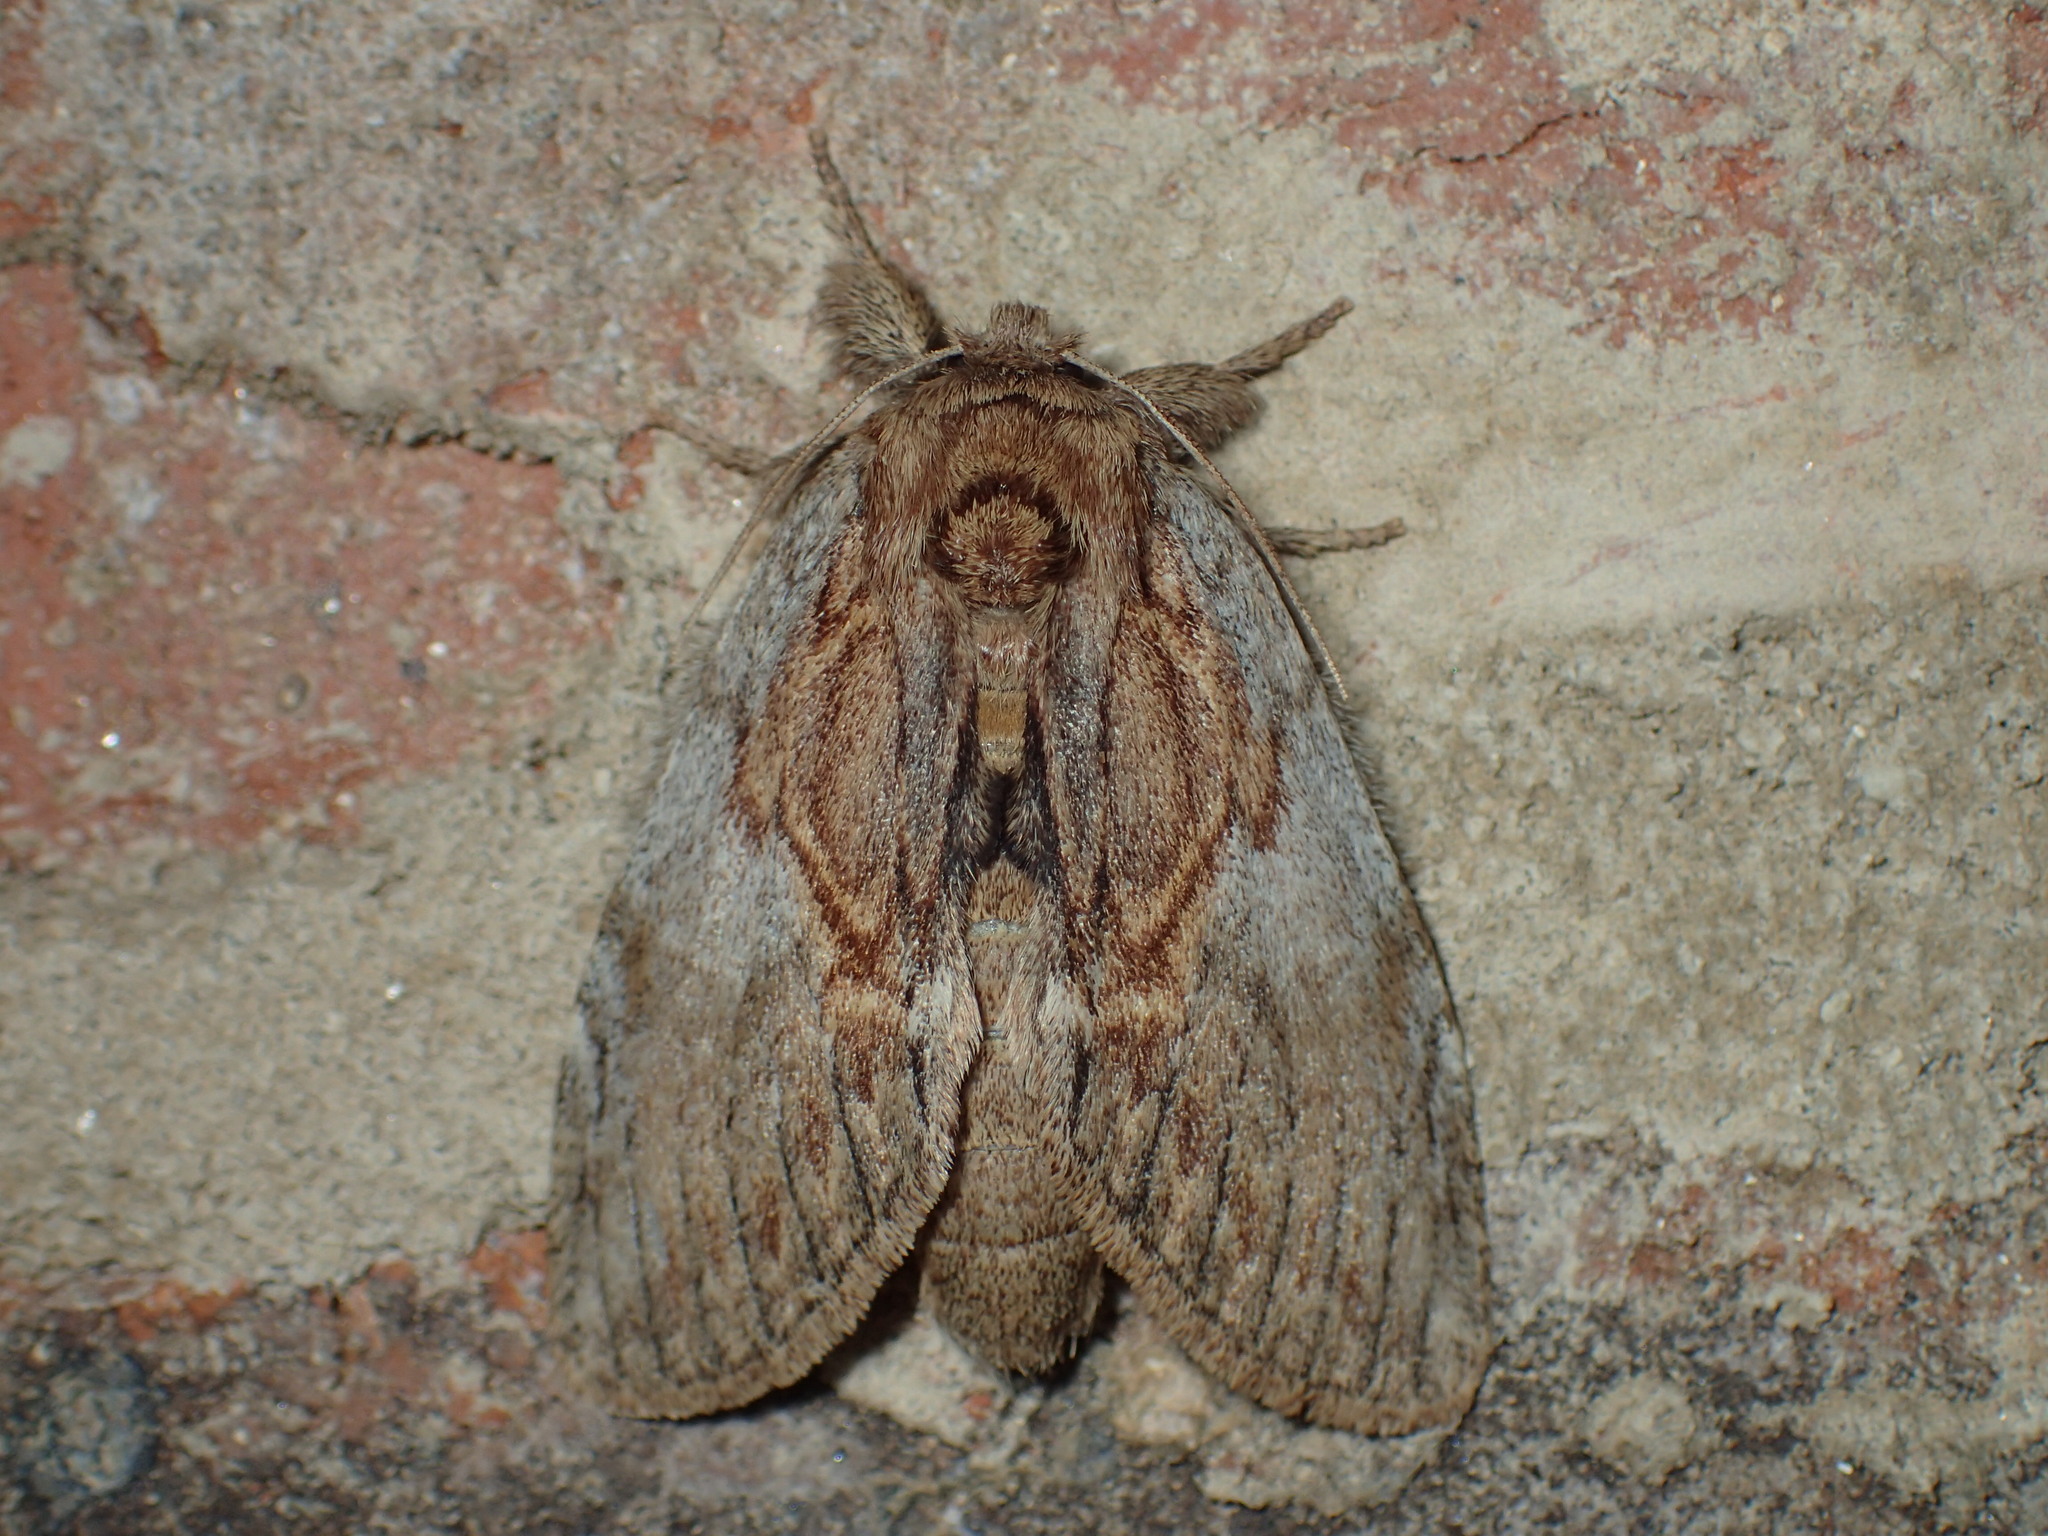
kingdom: Animalia
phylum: Arthropoda
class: Insecta
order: Lepidoptera
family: Notodontidae
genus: Peridea
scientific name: Peridea basitriens
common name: Oval-based prominent
